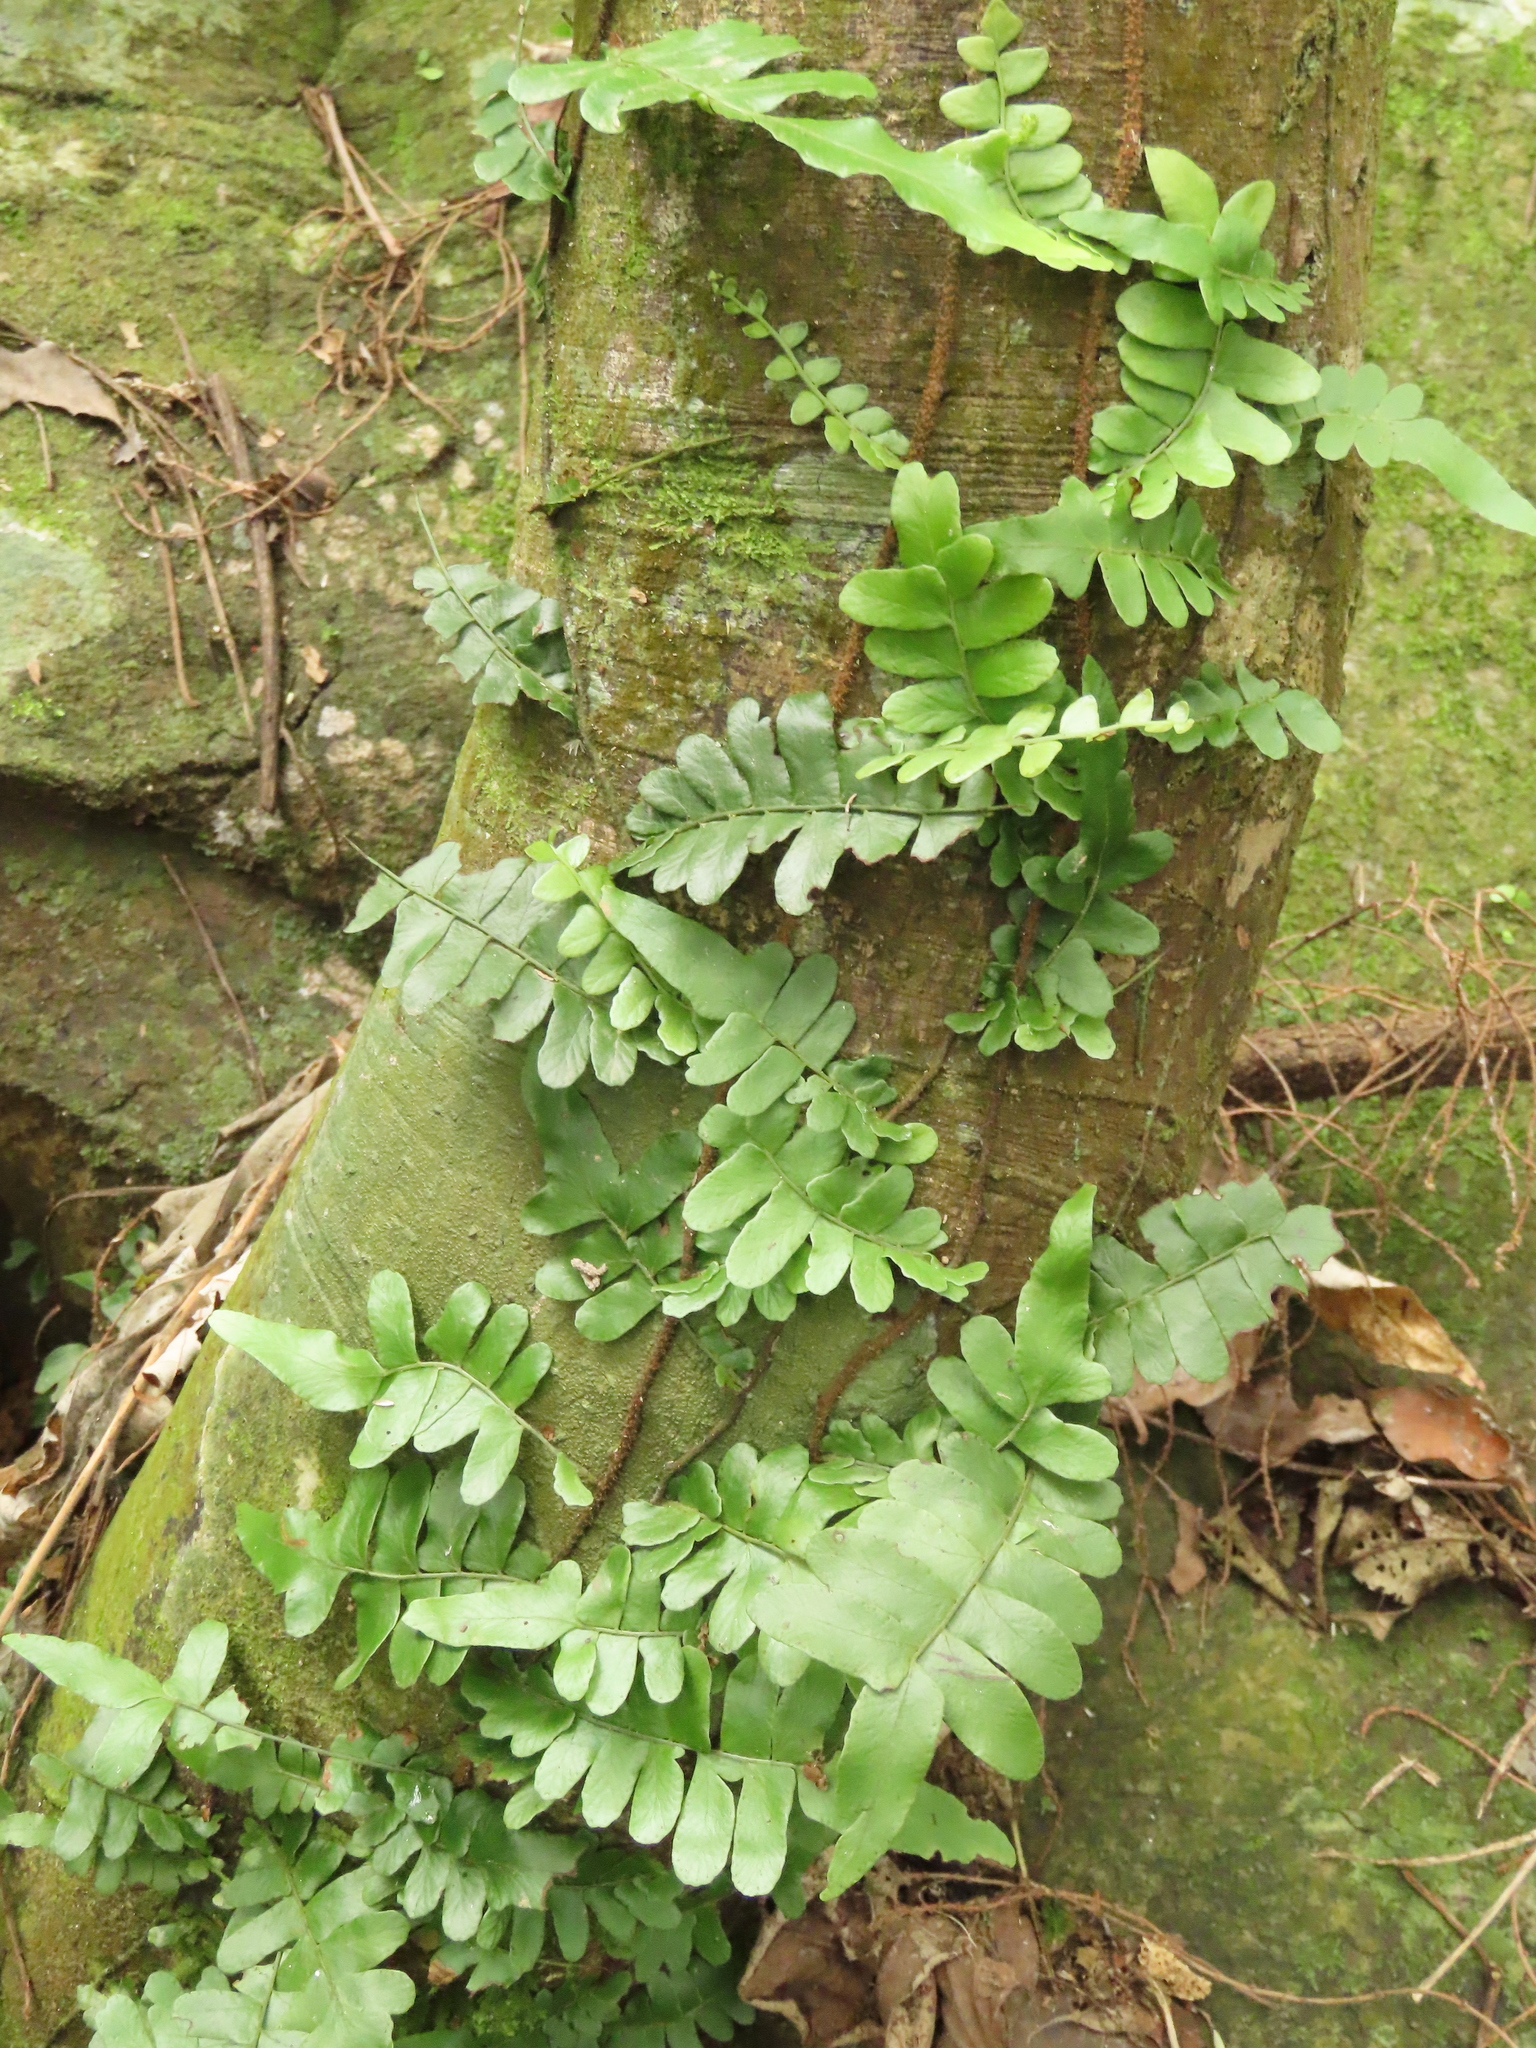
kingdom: Plantae
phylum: Tracheophyta
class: Polypodiopsida
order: Polypodiales
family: Tectariaceae
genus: Arthropteris
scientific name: Arthropteris palisotii
